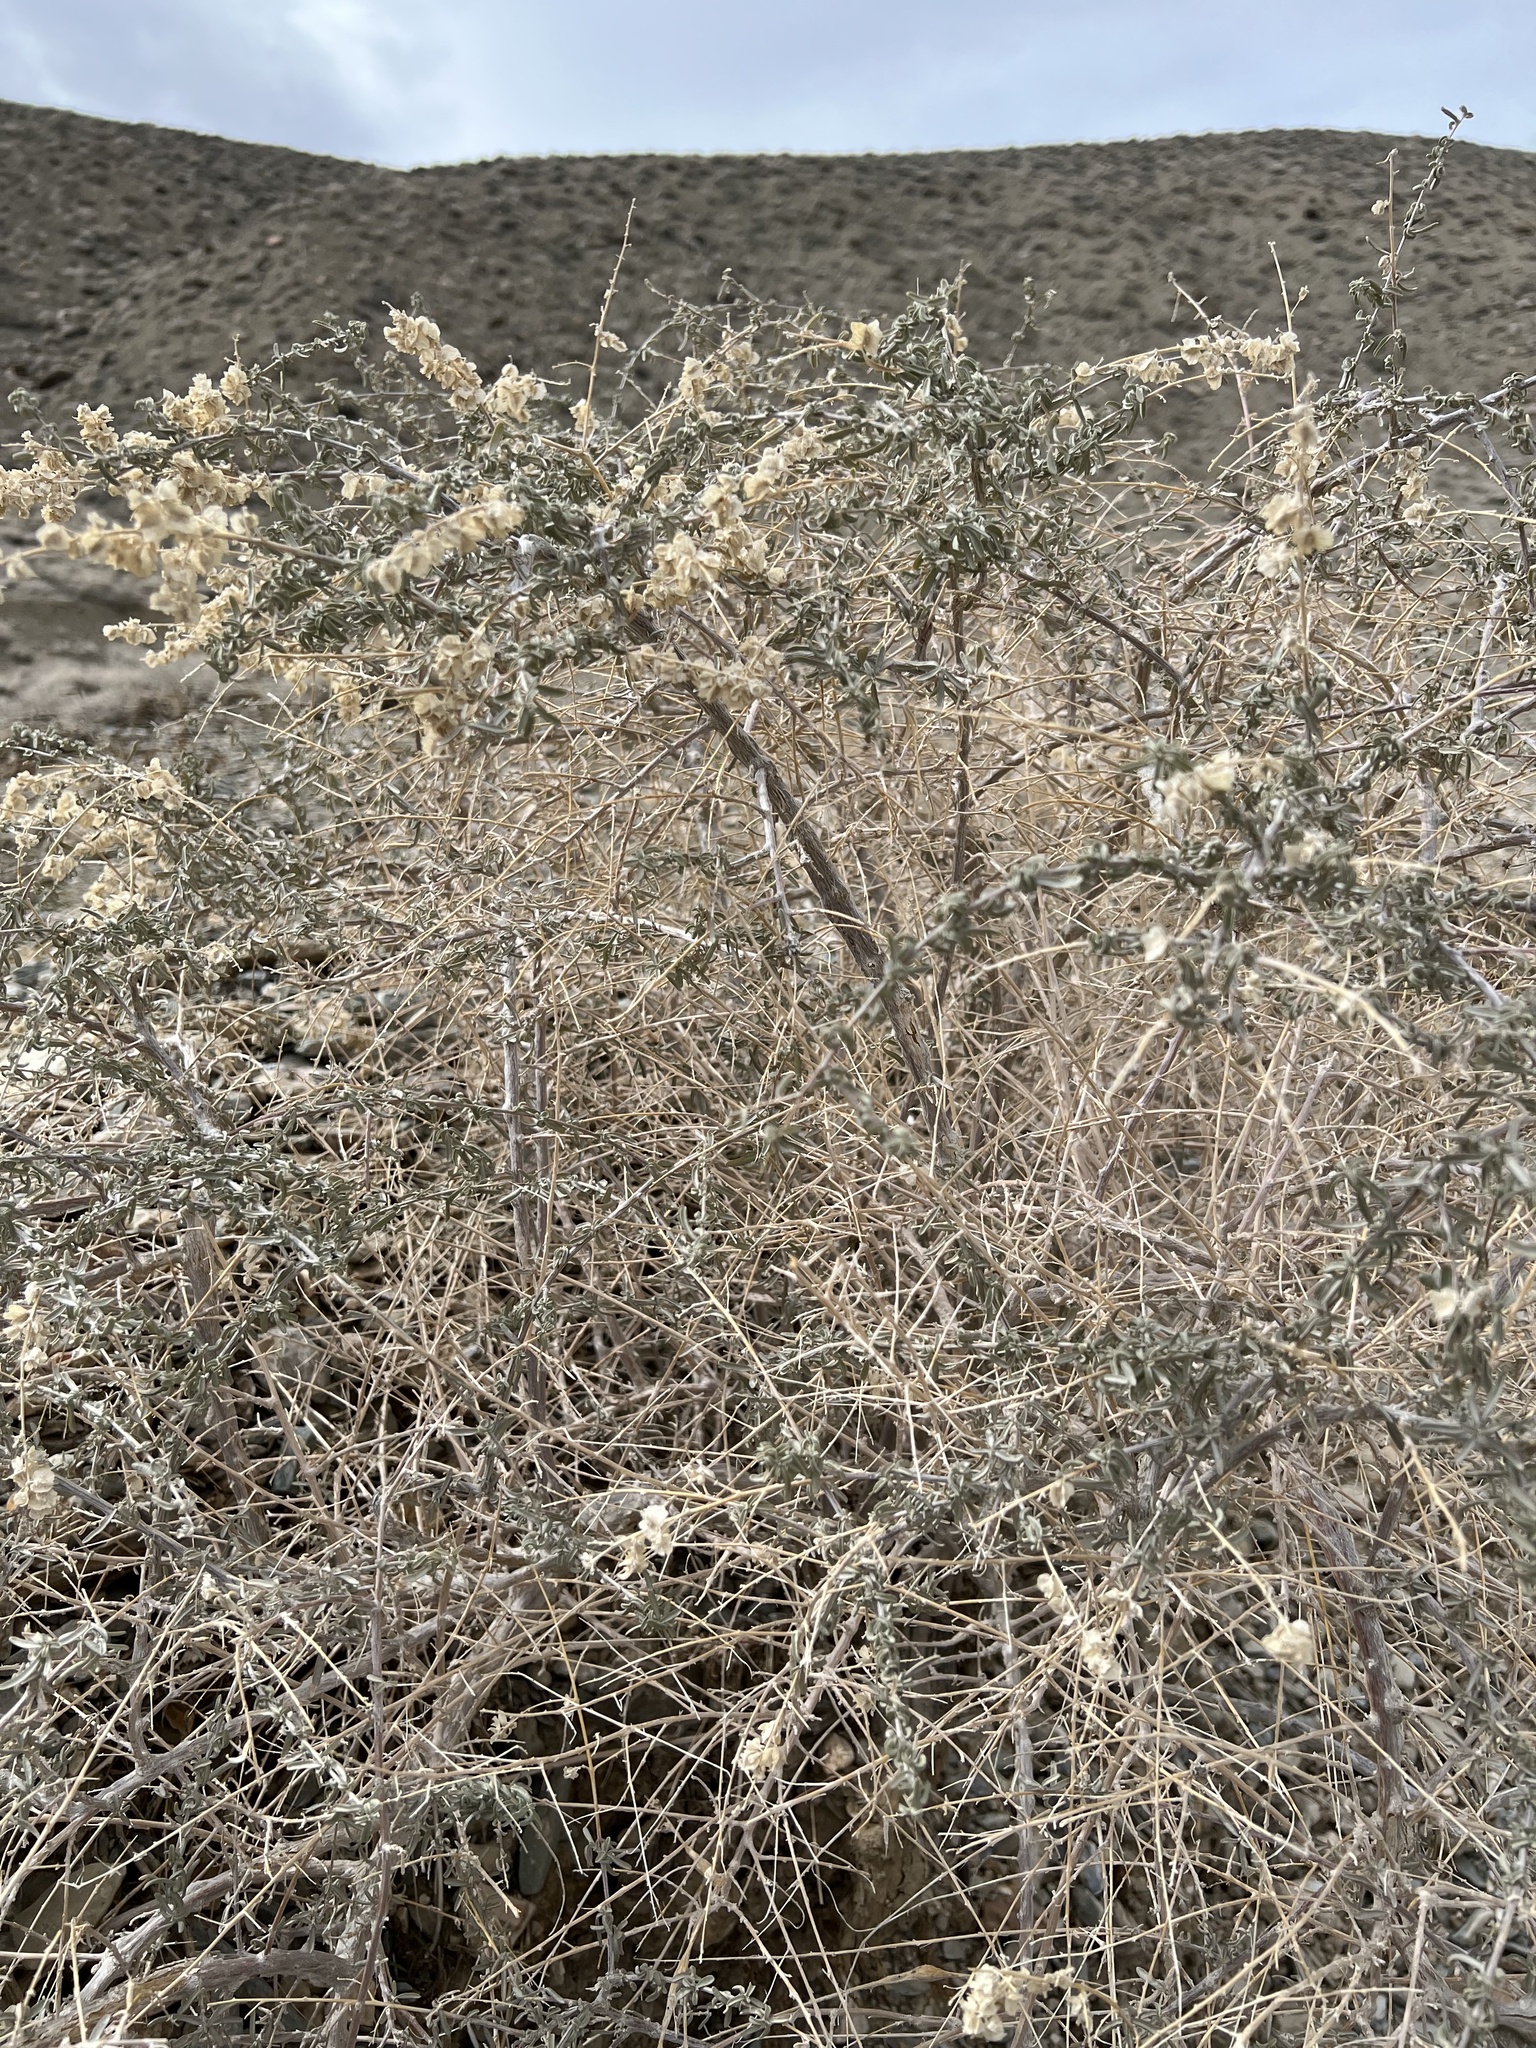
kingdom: Plantae
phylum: Tracheophyta
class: Magnoliopsida
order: Caryophyllales
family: Amaranthaceae
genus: Atriplex
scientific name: Atriplex canescens
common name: Four-wing saltbush
